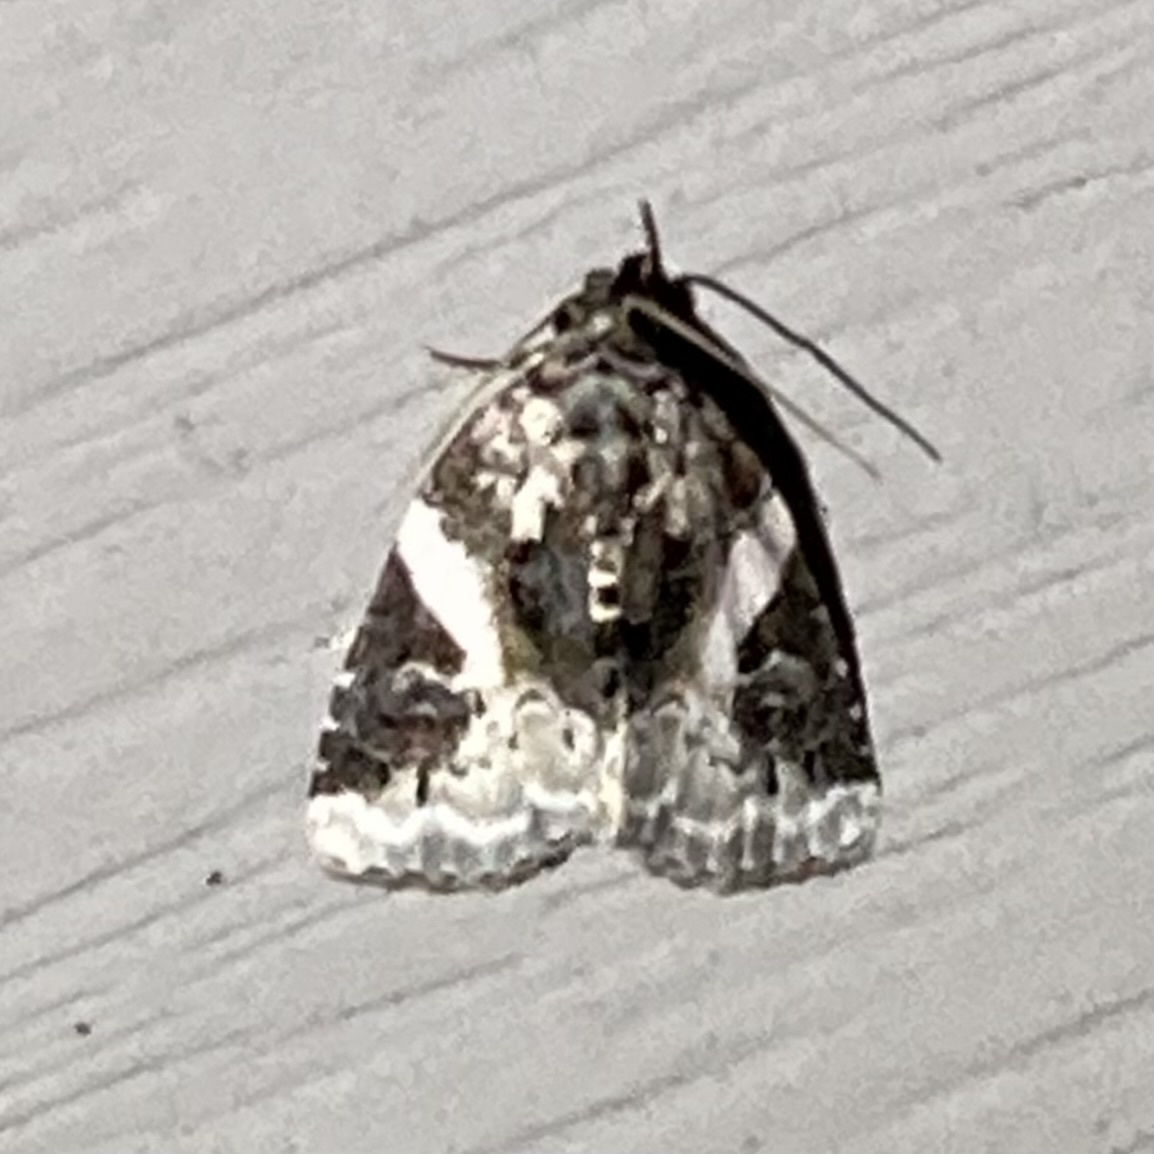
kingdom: Animalia
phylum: Arthropoda
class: Insecta
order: Lepidoptera
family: Noctuidae
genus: Pseudeustrotia
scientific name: Pseudeustrotia carneola
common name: Pink-barred lithacodia moth
